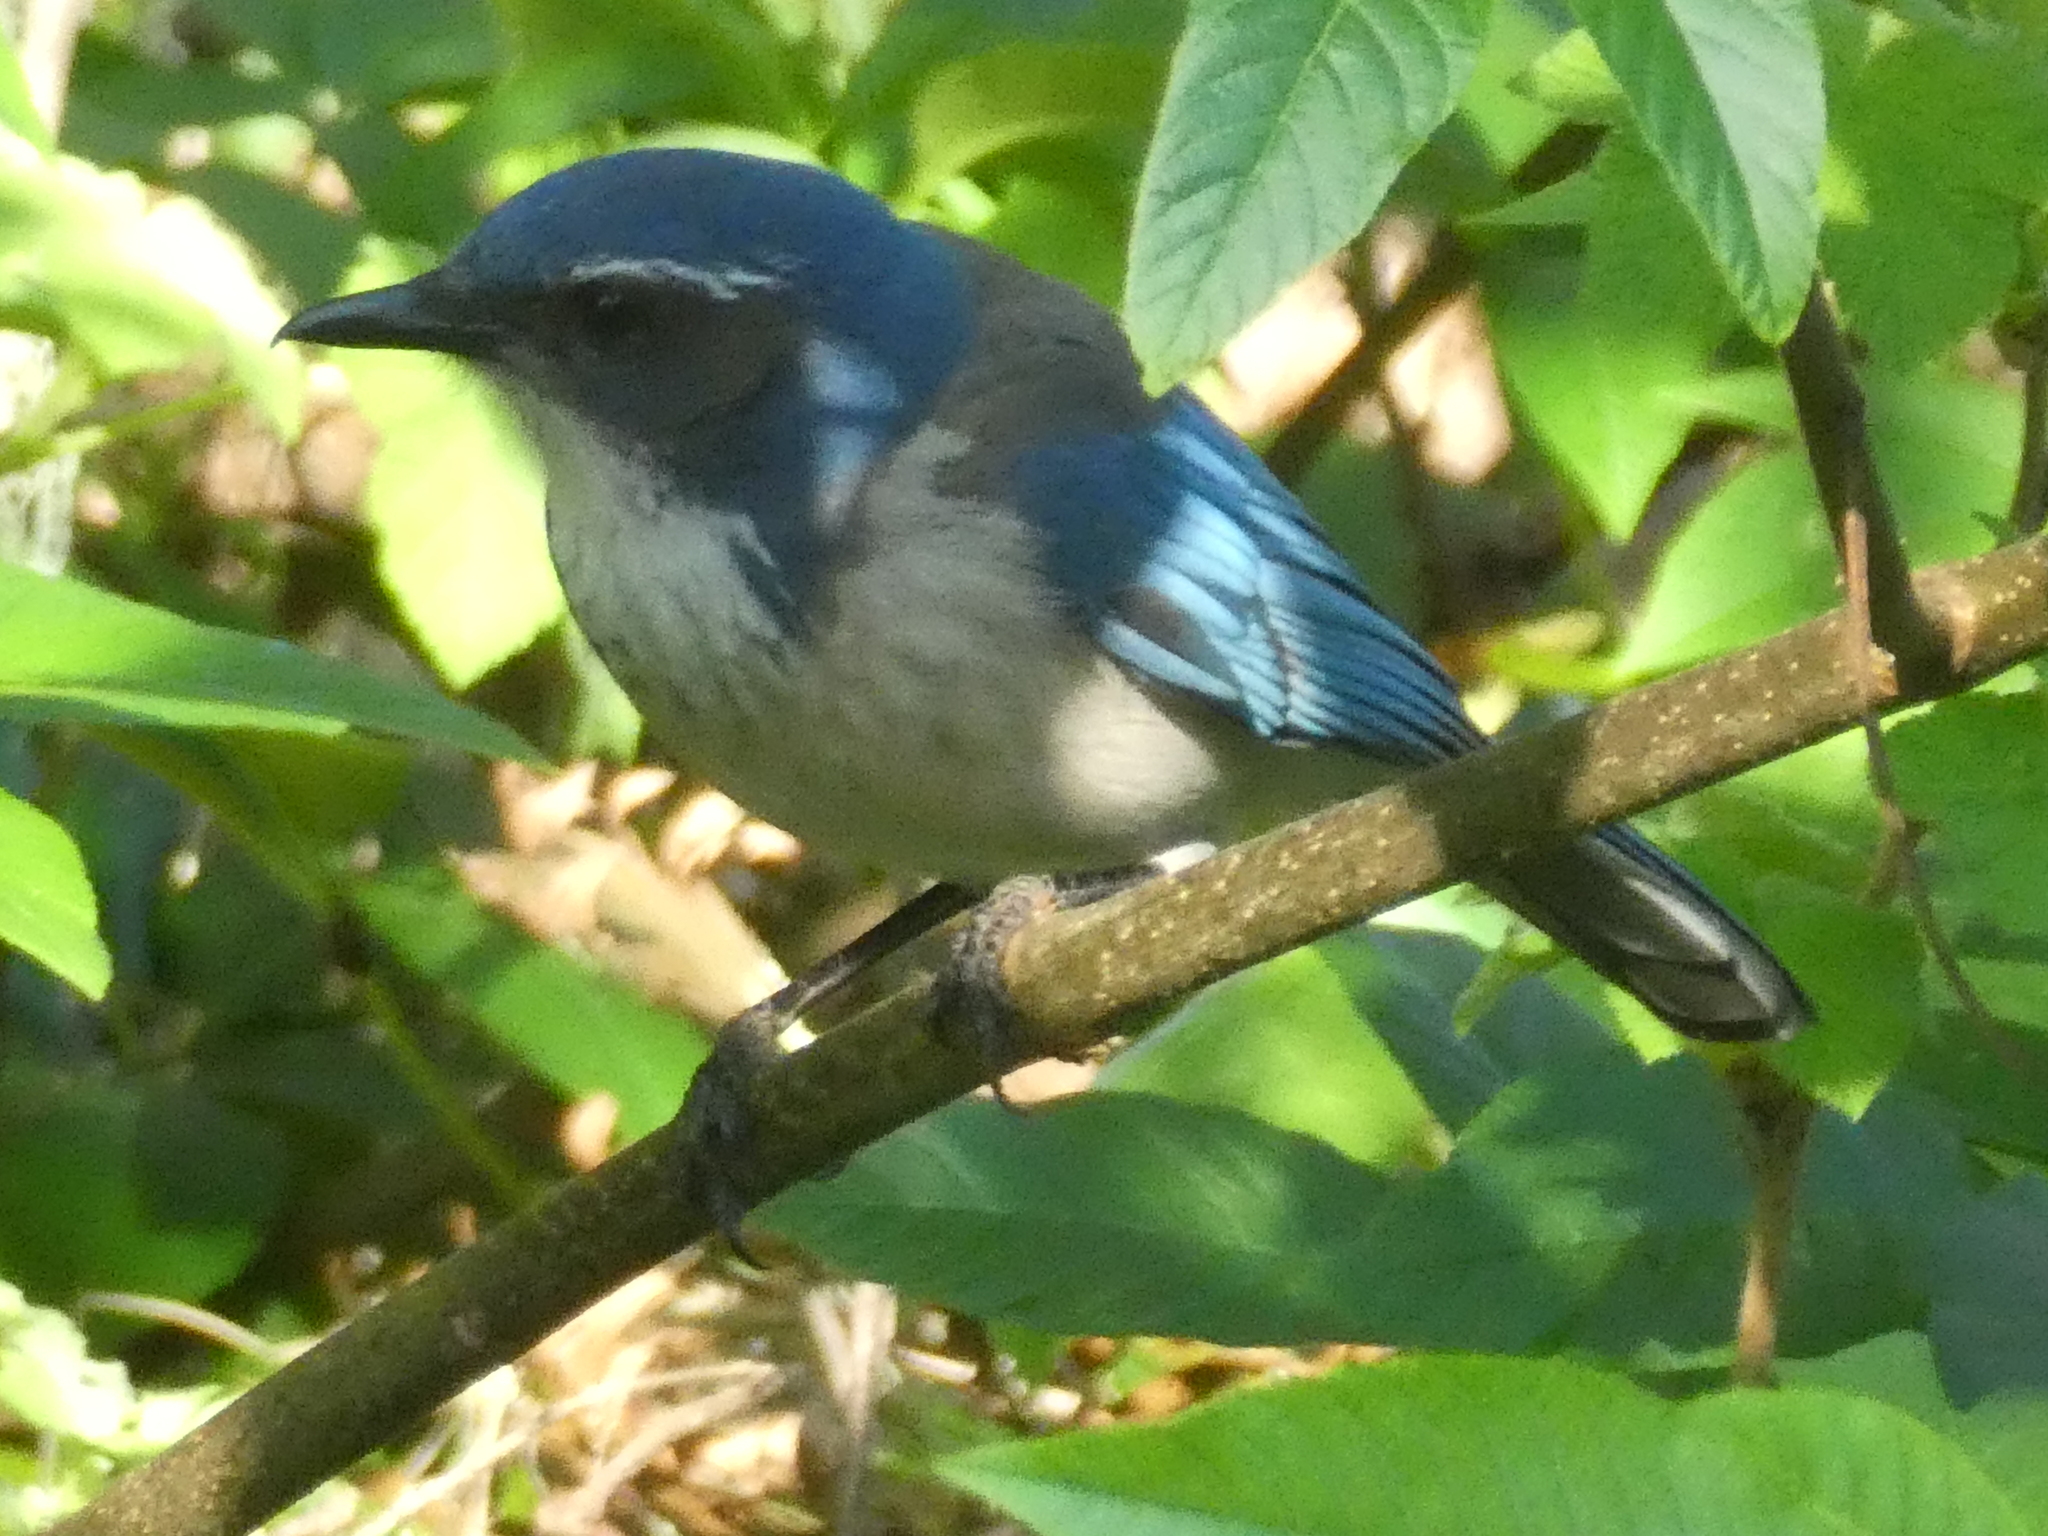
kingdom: Animalia
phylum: Chordata
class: Aves
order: Passeriformes
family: Corvidae
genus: Aphelocoma
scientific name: Aphelocoma californica
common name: California scrub-jay
